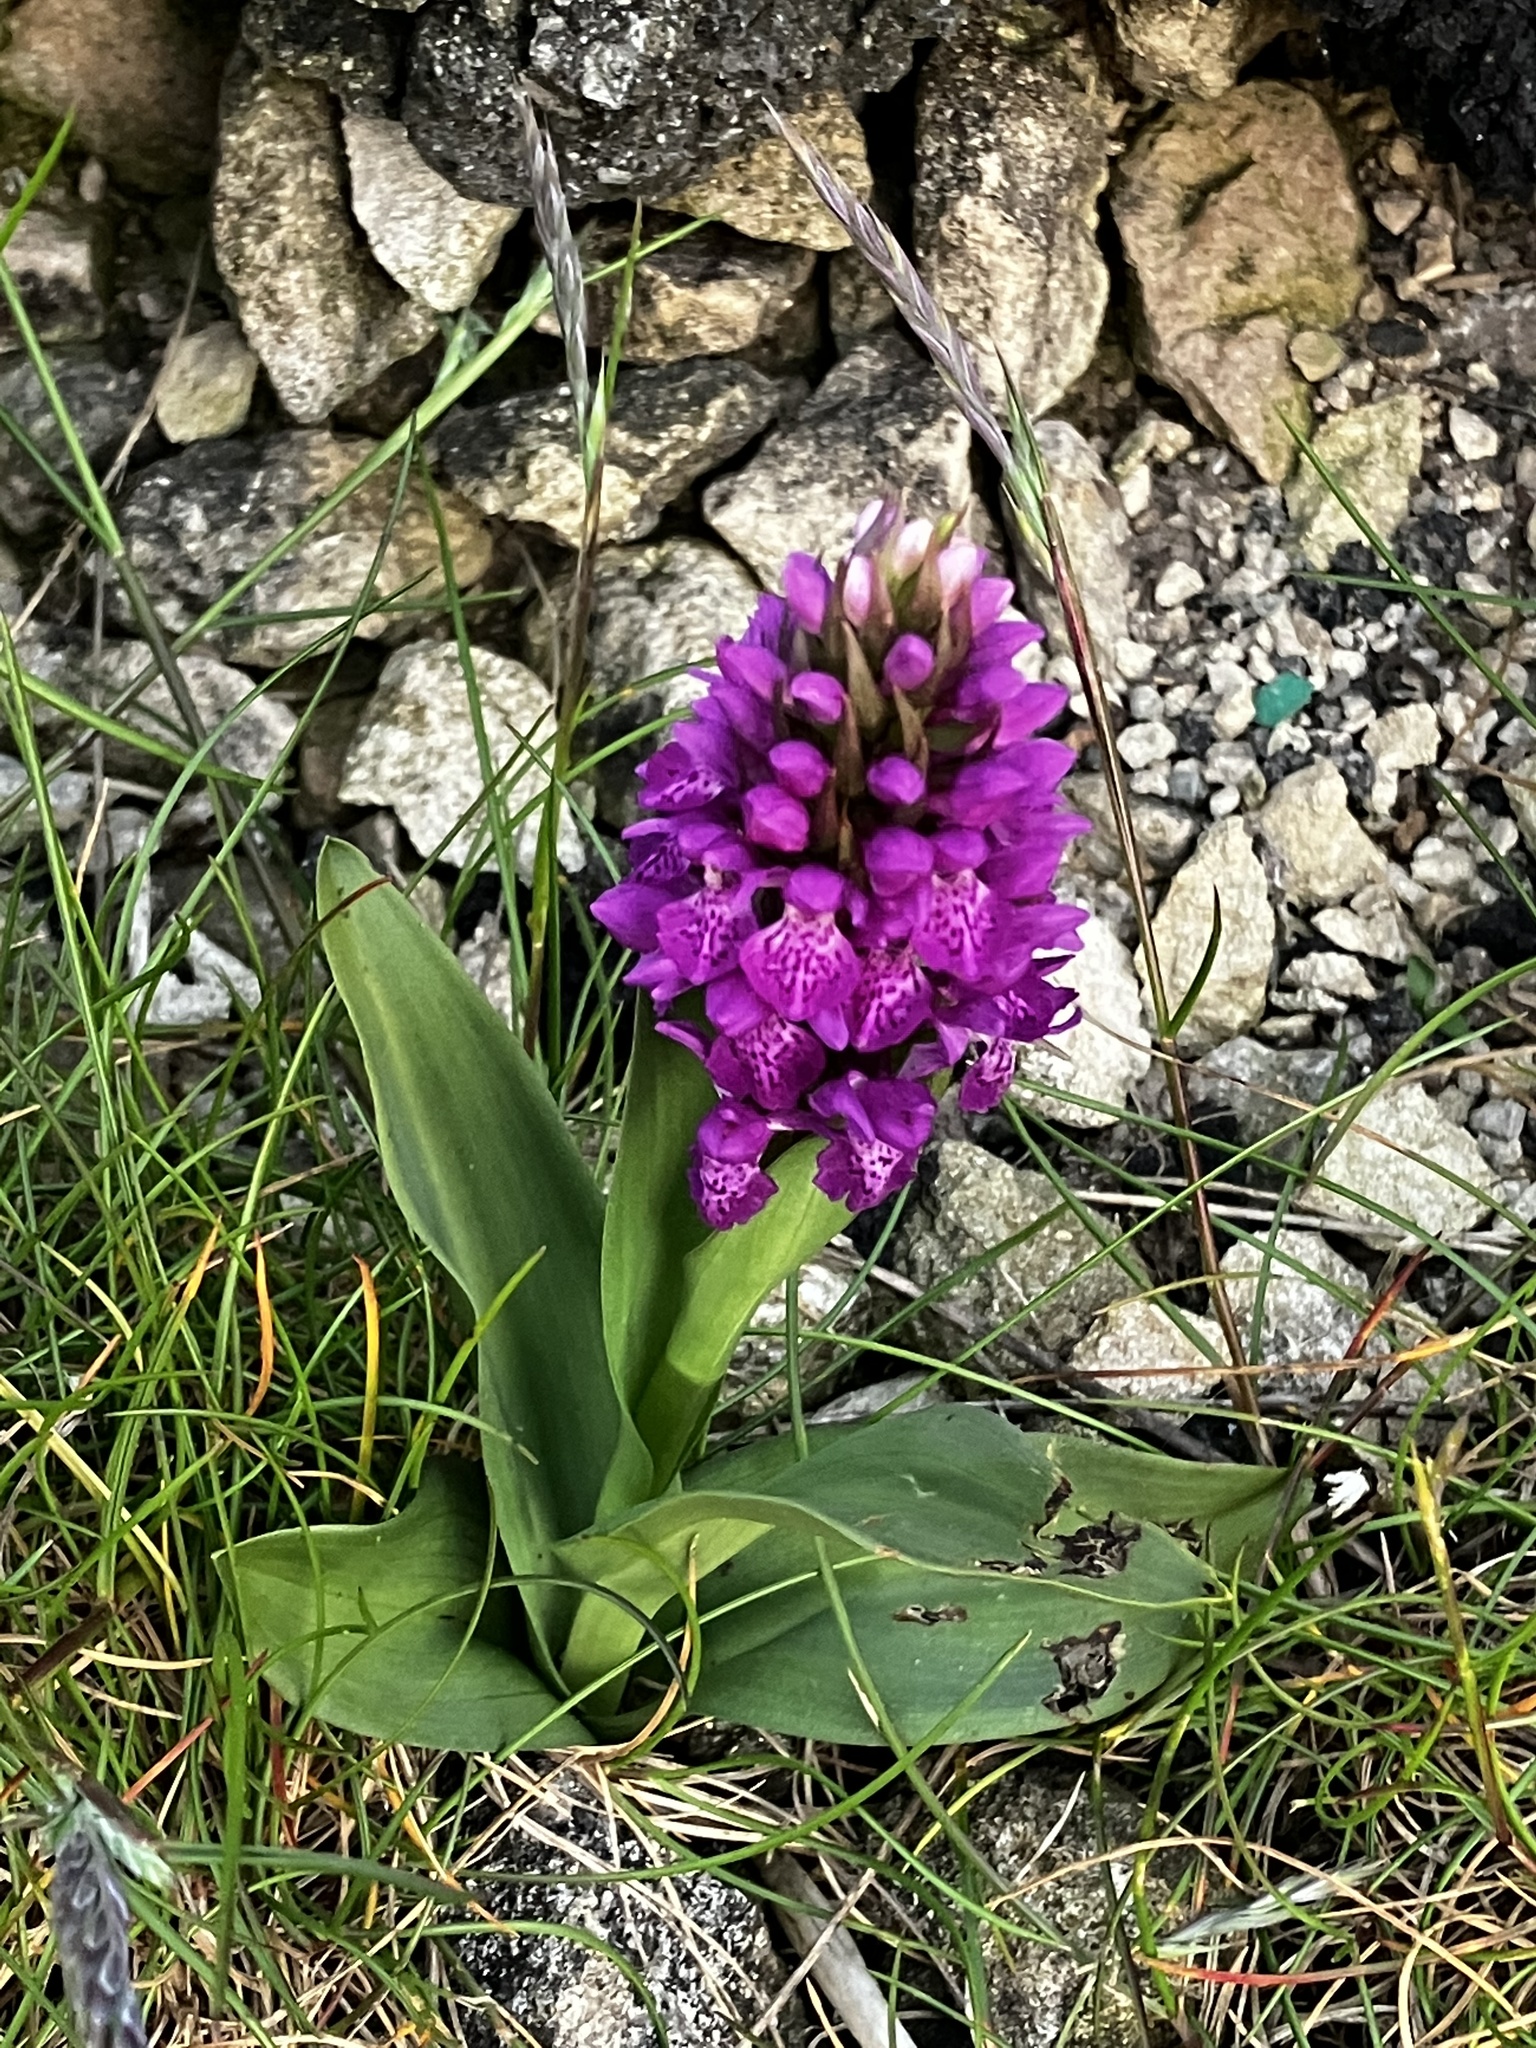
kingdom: Plantae
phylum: Tracheophyta
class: Liliopsida
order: Asparagales
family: Orchidaceae
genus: Dactylorhiza
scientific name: Dactylorhiza majalis
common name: Marsh orchid
